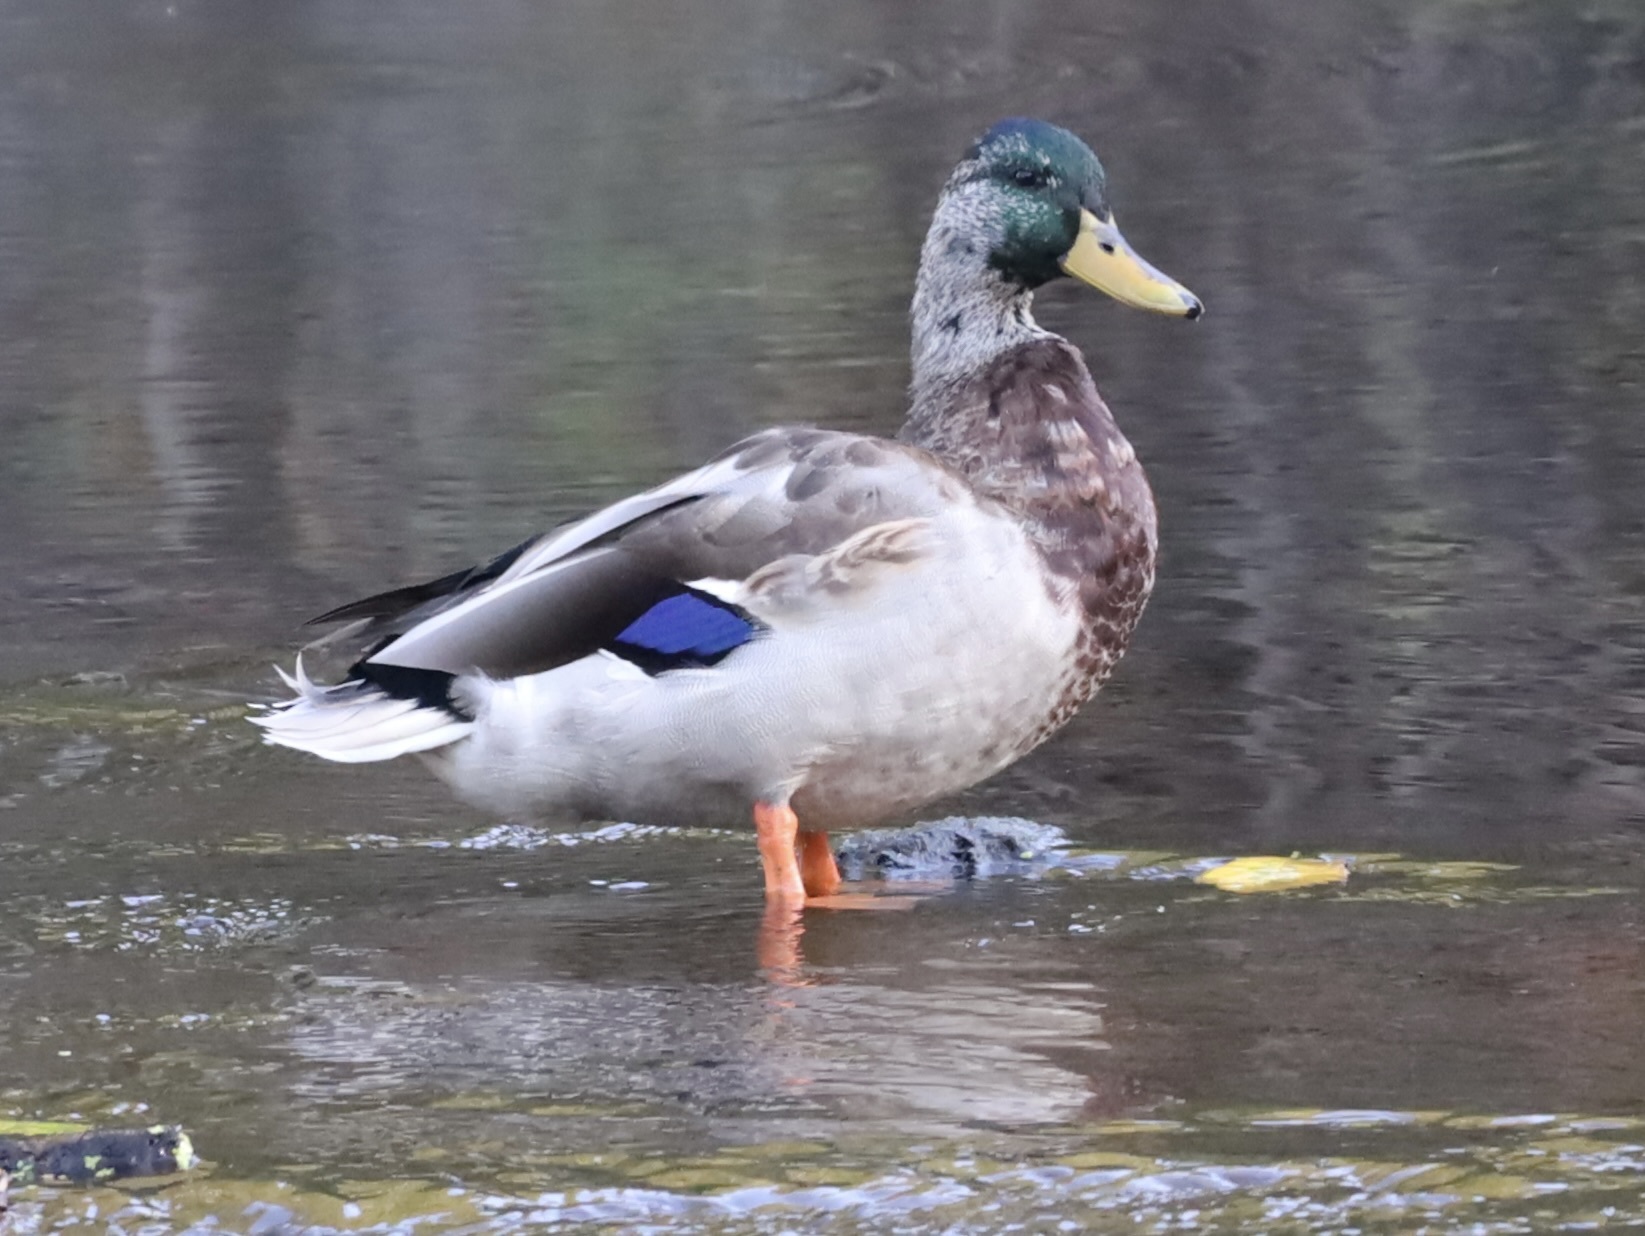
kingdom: Animalia
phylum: Chordata
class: Aves
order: Anseriformes
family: Anatidae
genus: Anas
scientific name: Anas platyrhynchos
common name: Mallard
